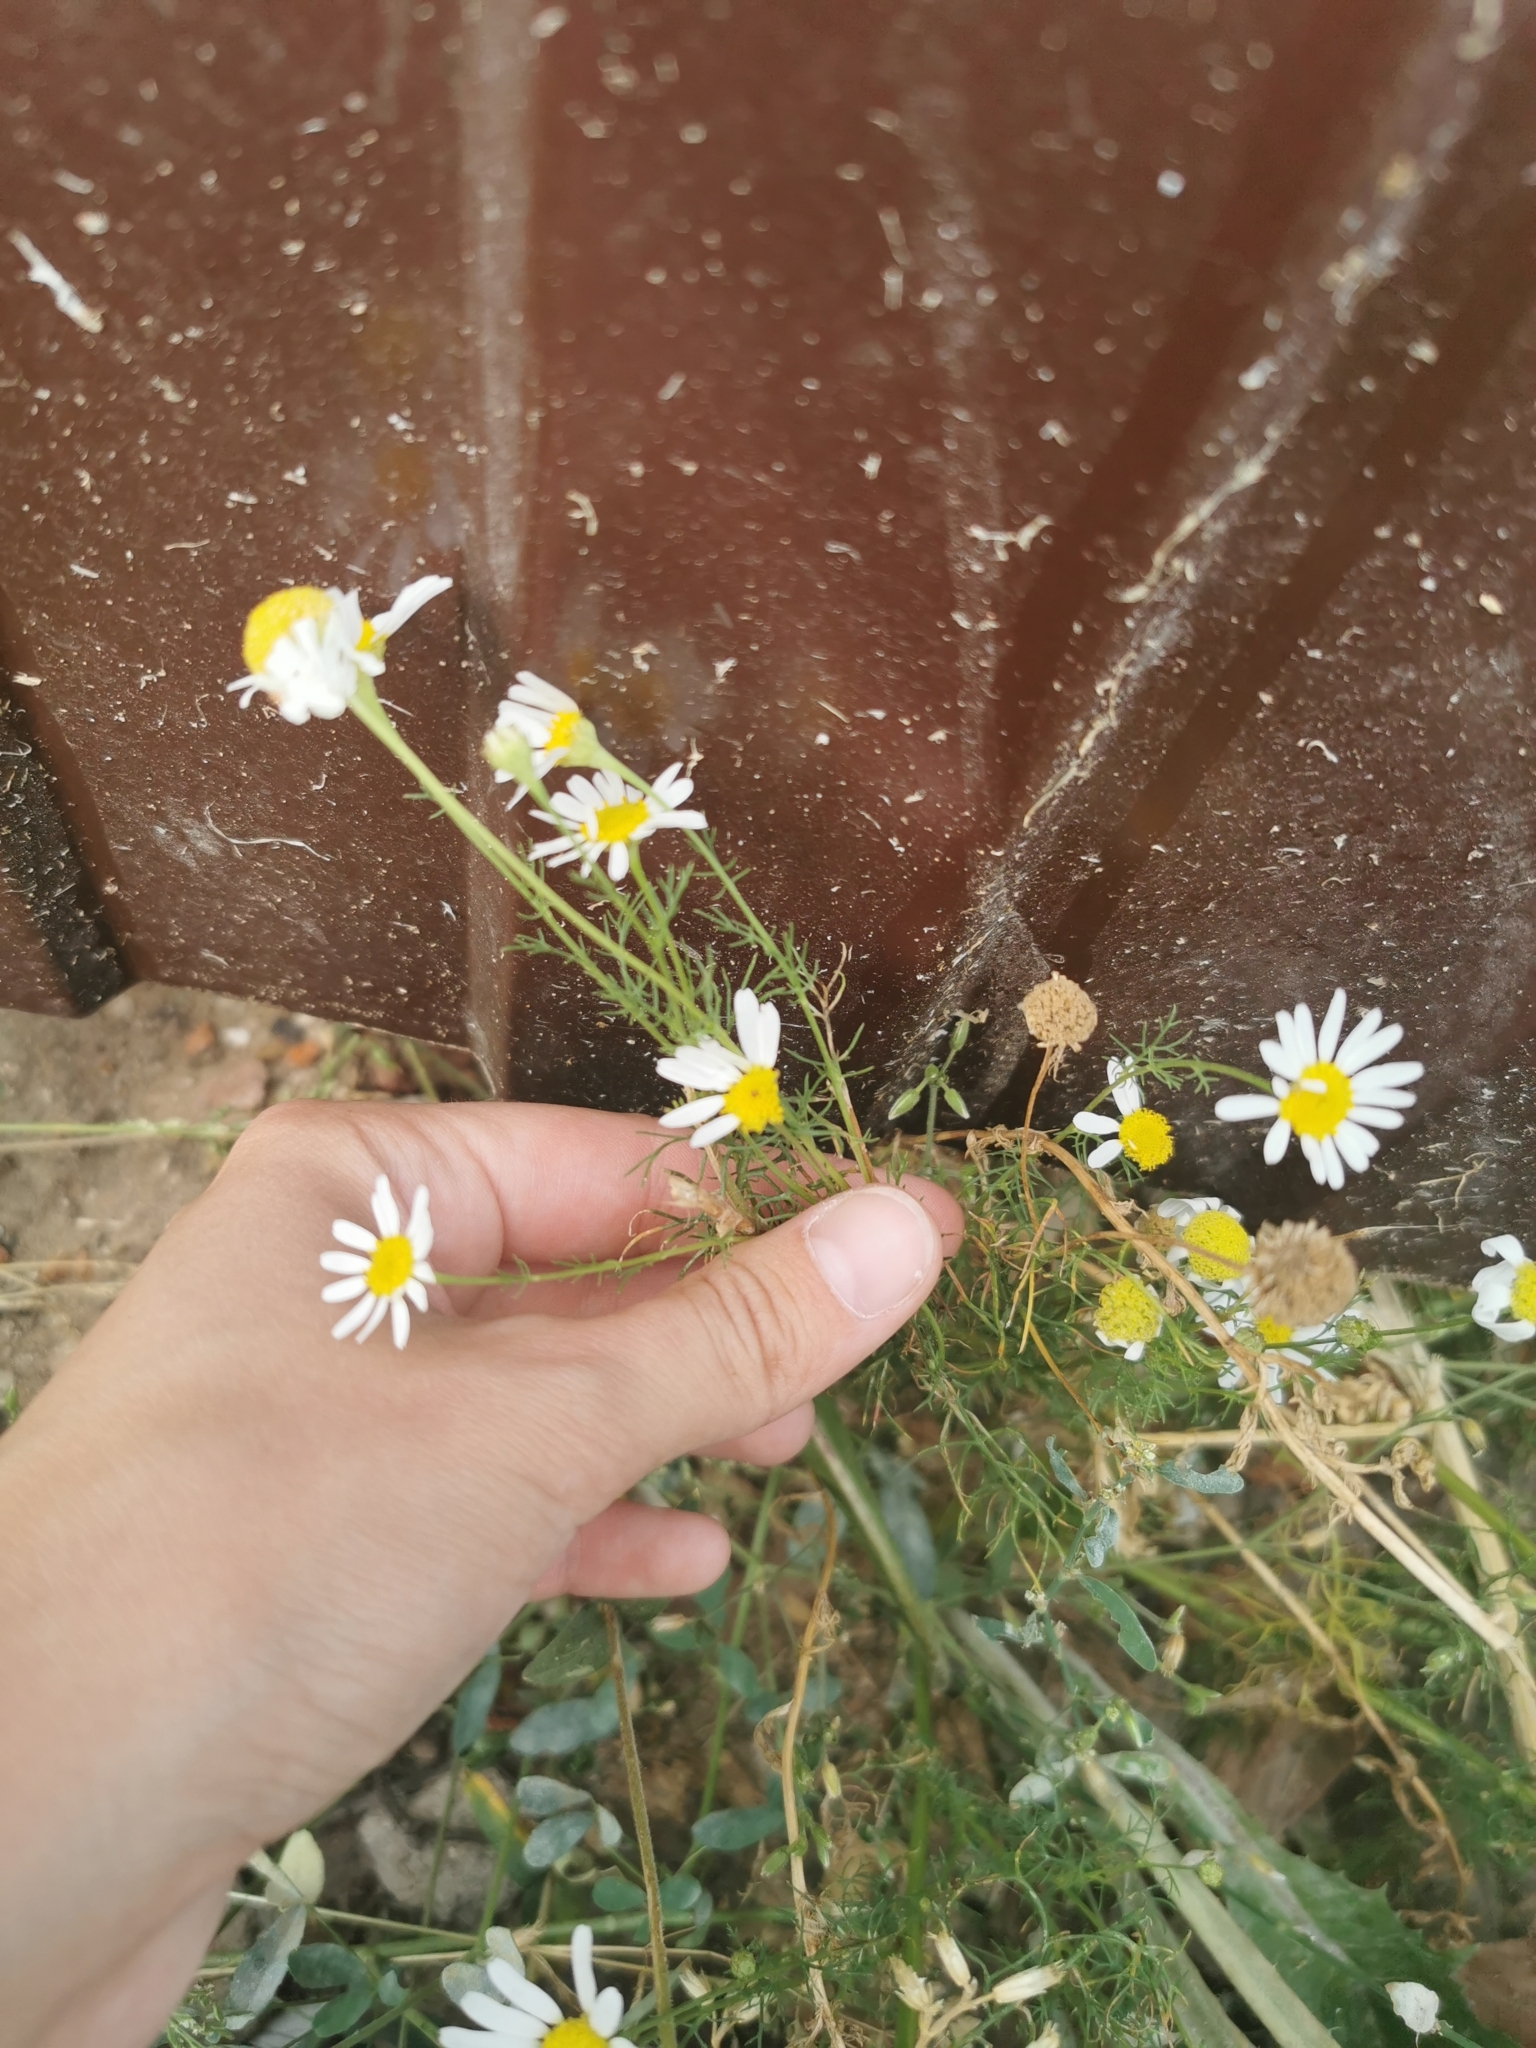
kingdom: Plantae
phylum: Tracheophyta
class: Magnoliopsida
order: Asterales
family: Asteraceae
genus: Tripleurospermum
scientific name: Tripleurospermum inodorum
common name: Scentless mayweed
